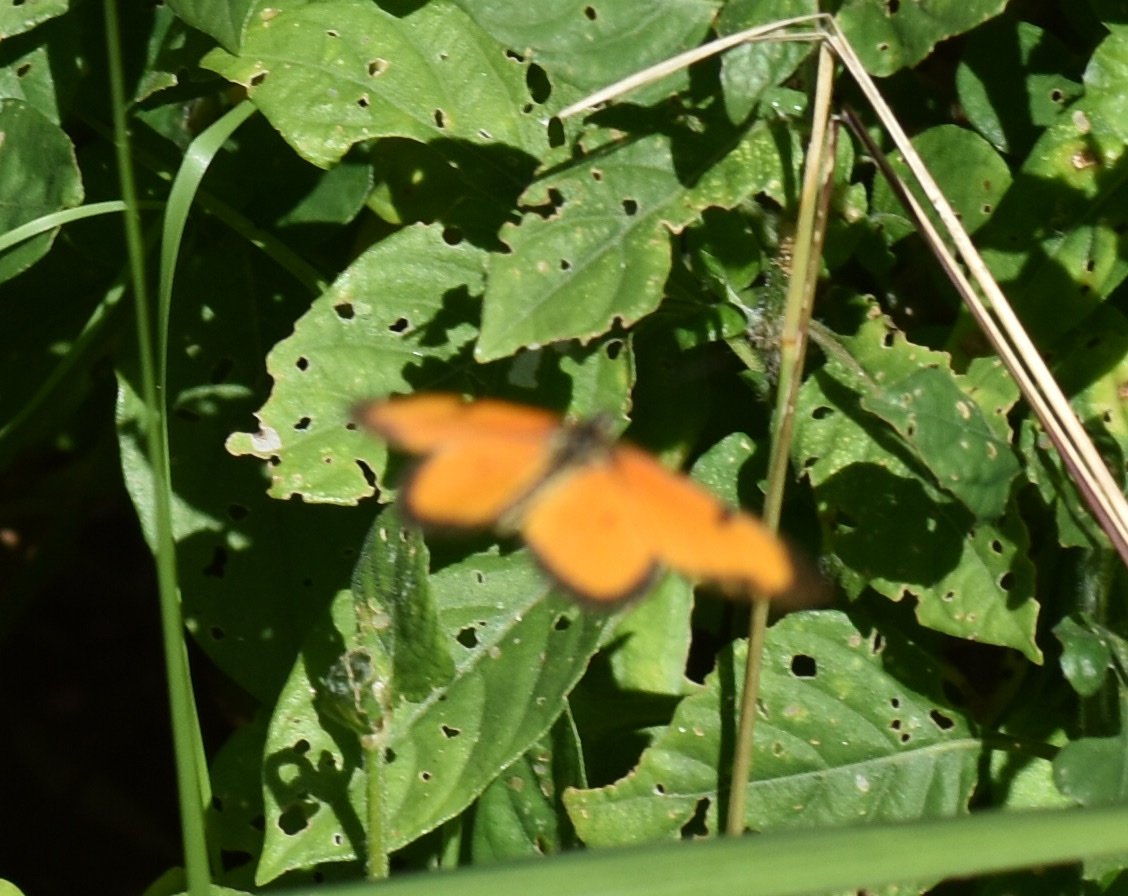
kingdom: Animalia
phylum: Arthropoda
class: Insecta
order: Lepidoptera
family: Nymphalidae
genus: Acraea
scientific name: Acraea Telchinia serena
